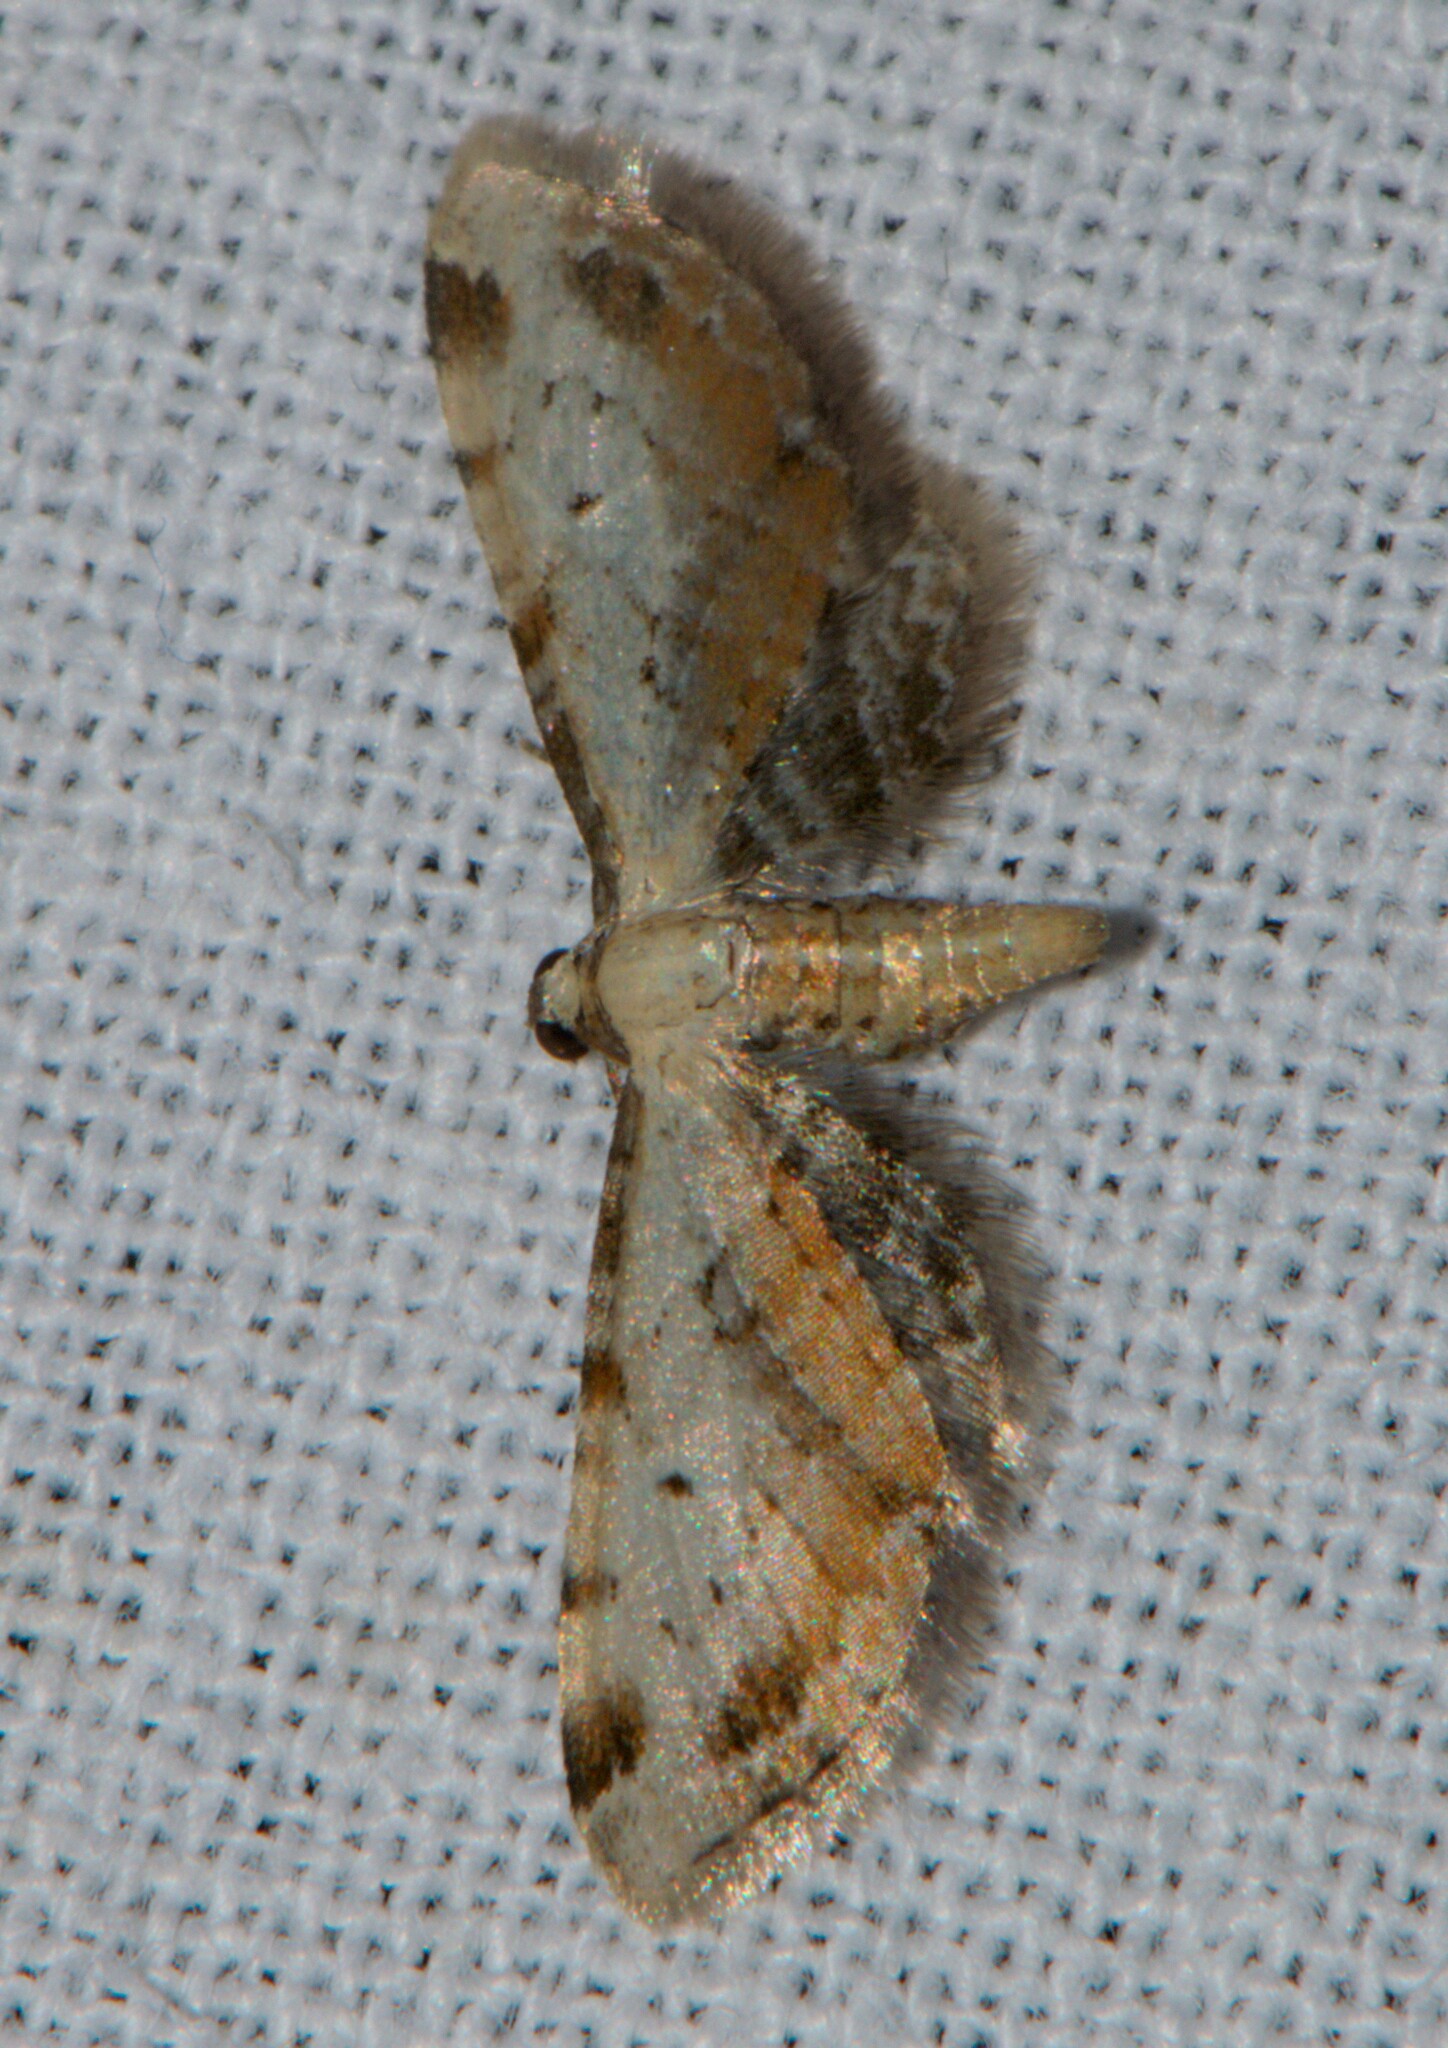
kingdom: Animalia
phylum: Arthropoda
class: Insecta
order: Lepidoptera
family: Geometridae
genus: Eupithecia
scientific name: Eupithecia leucenthesis
